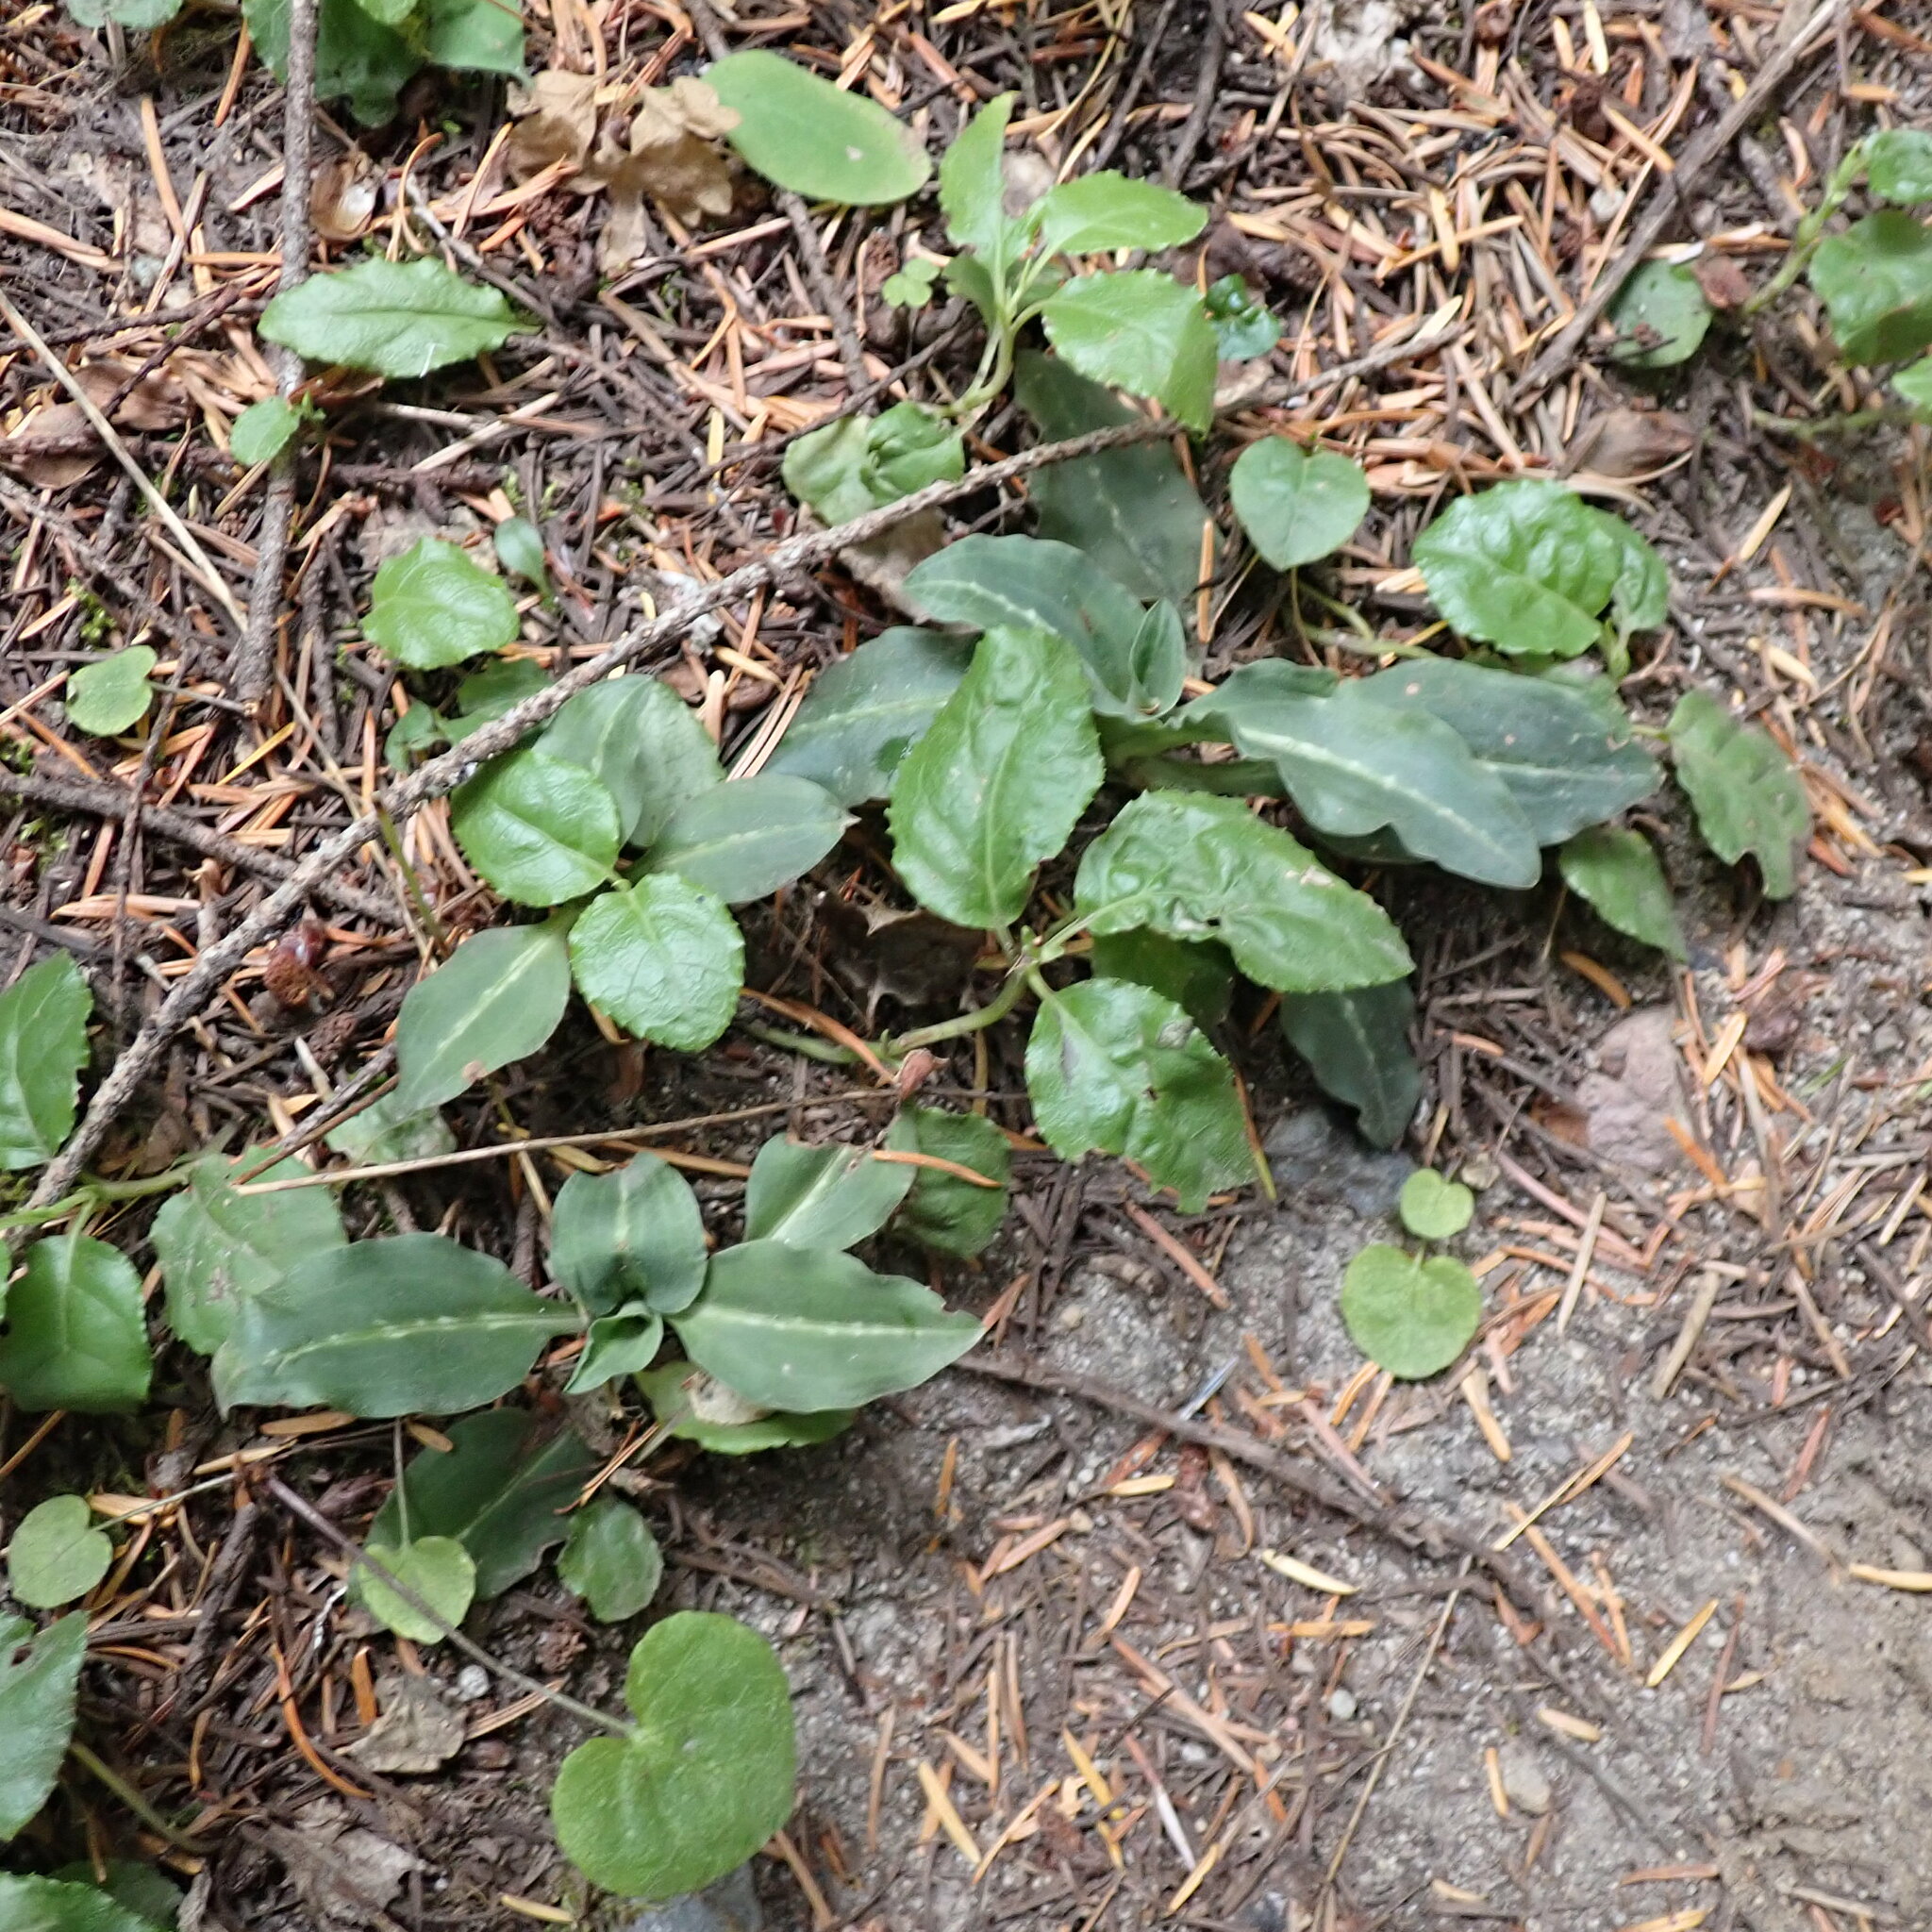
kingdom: Plantae
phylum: Tracheophyta
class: Liliopsida
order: Asparagales
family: Orchidaceae
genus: Goodyera
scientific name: Goodyera oblongifolia
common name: Giant rattlesnake-plantain
